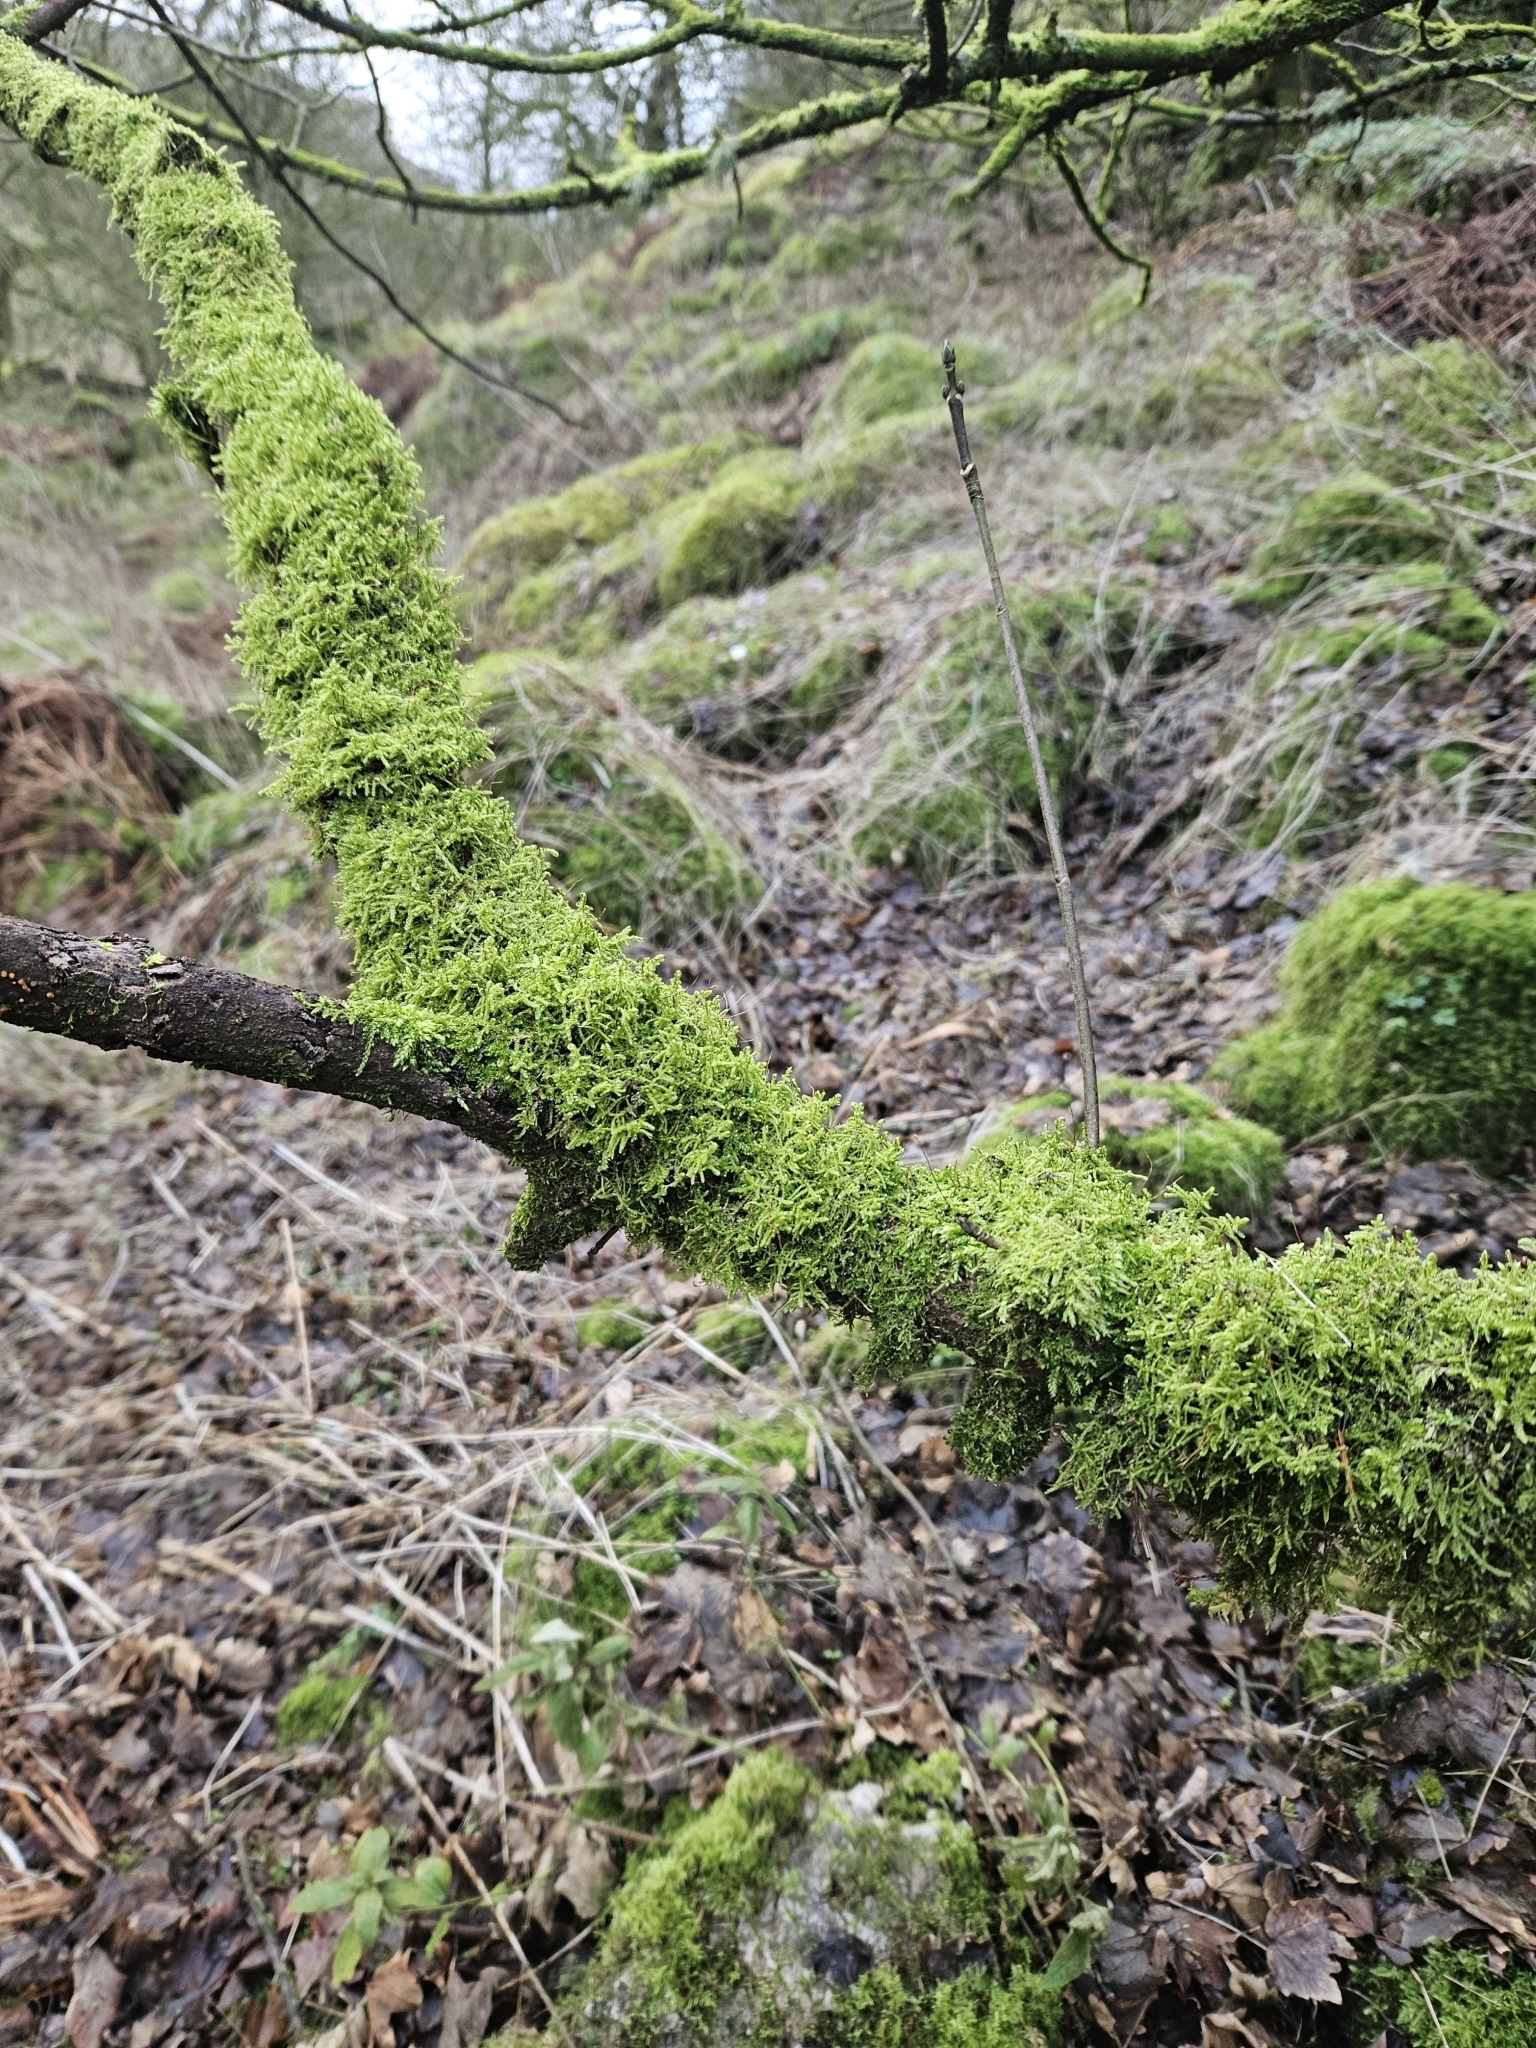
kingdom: Plantae
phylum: Bryophyta
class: Bryopsida
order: Hypnales
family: Scorpidiaceae
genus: Sanionia
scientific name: Sanionia uncinata
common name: Sickle moss
